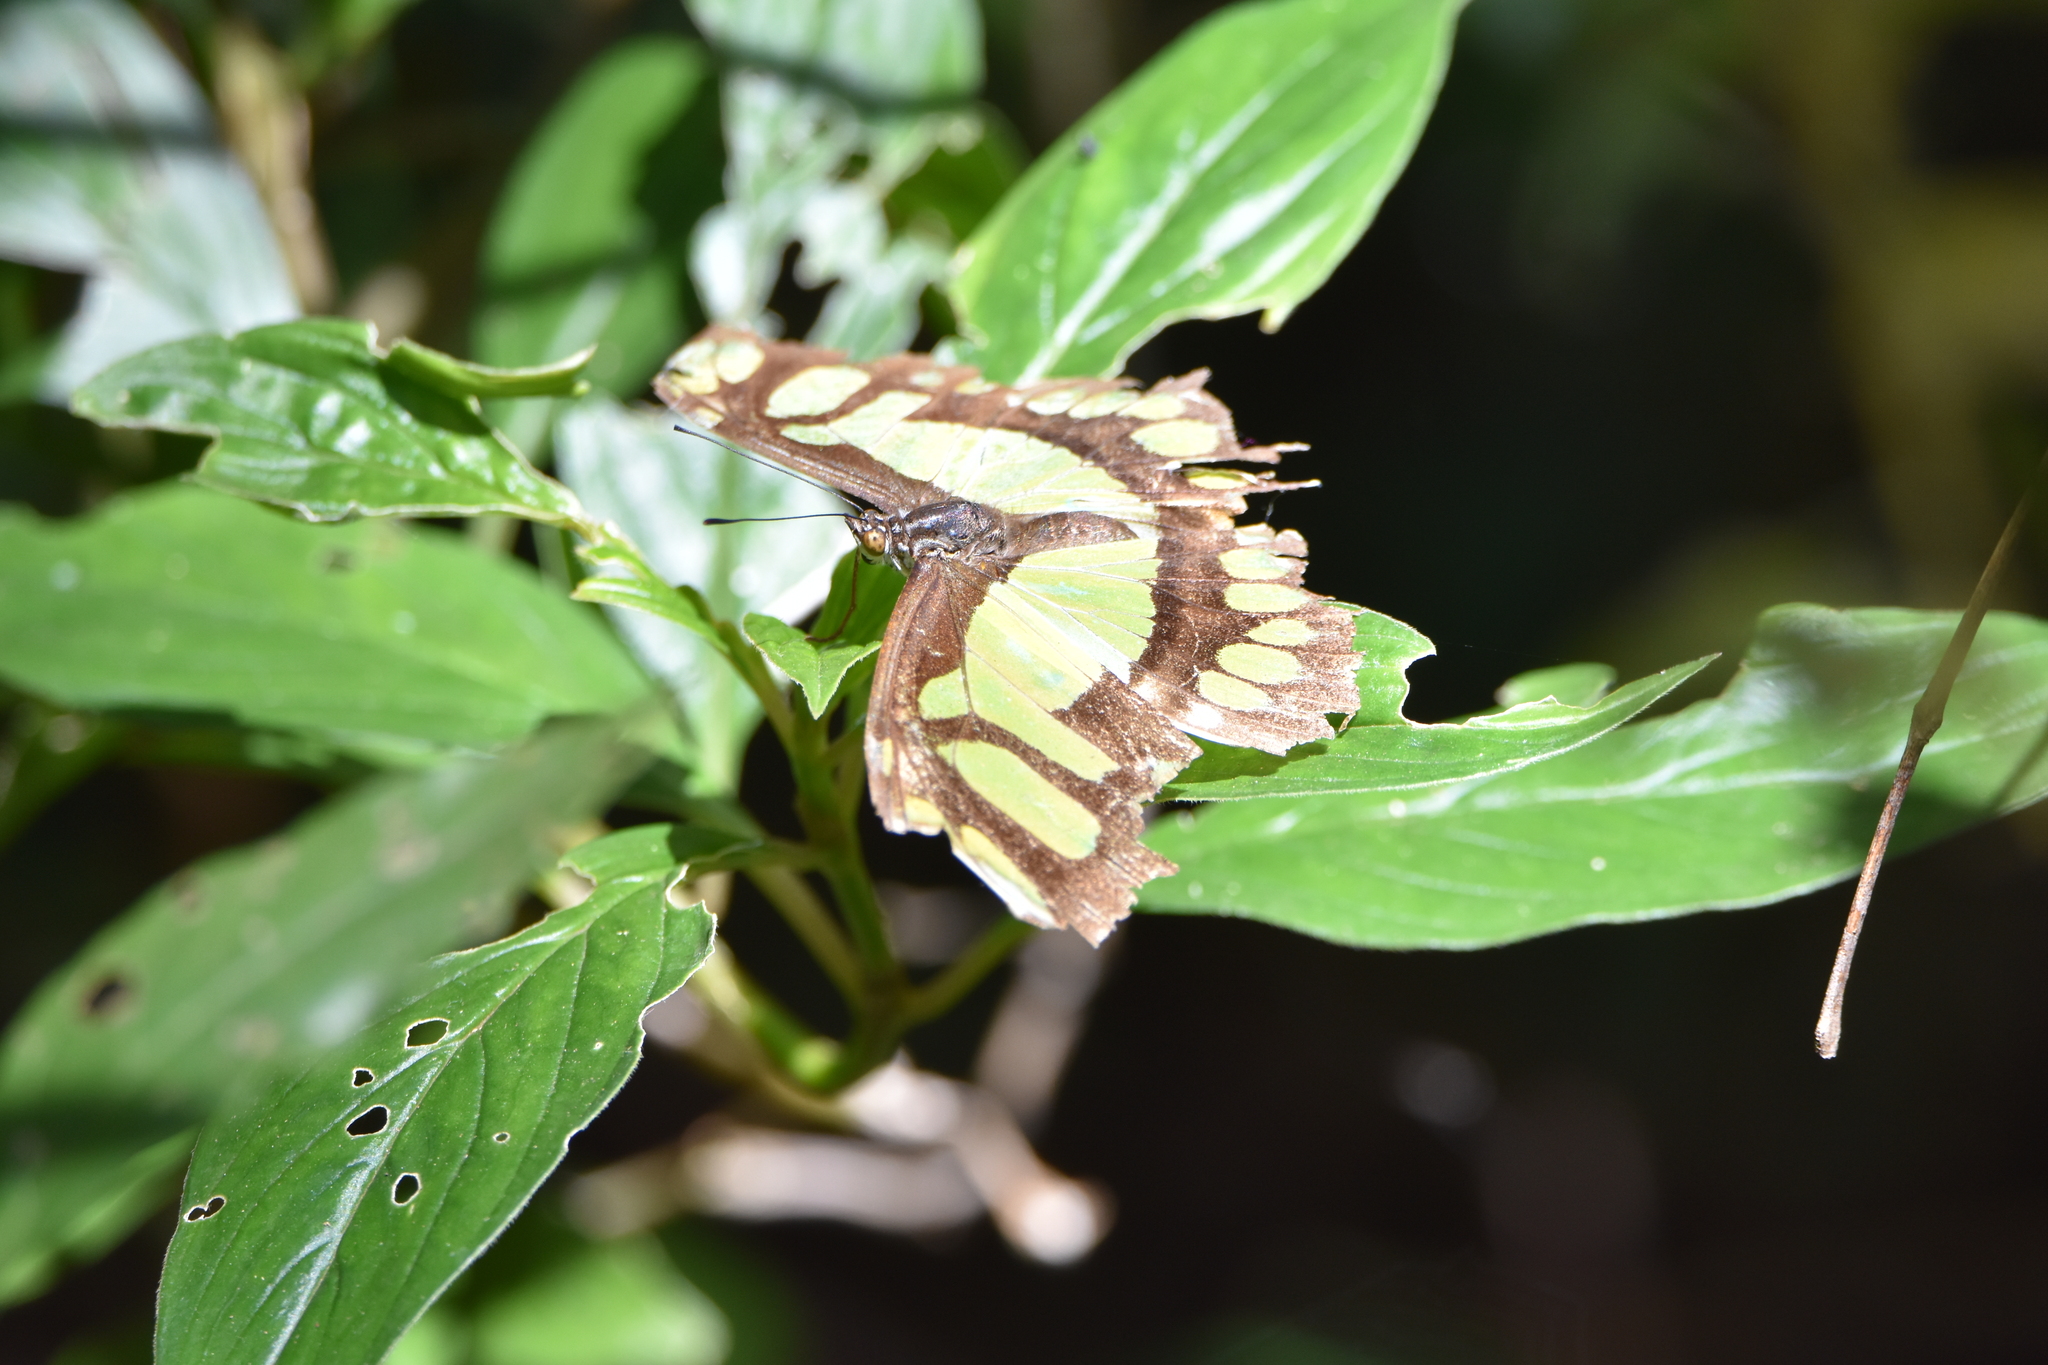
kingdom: Animalia
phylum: Arthropoda
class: Insecta
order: Lepidoptera
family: Nymphalidae
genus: Siproeta
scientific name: Siproeta stelenes
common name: Malachite
